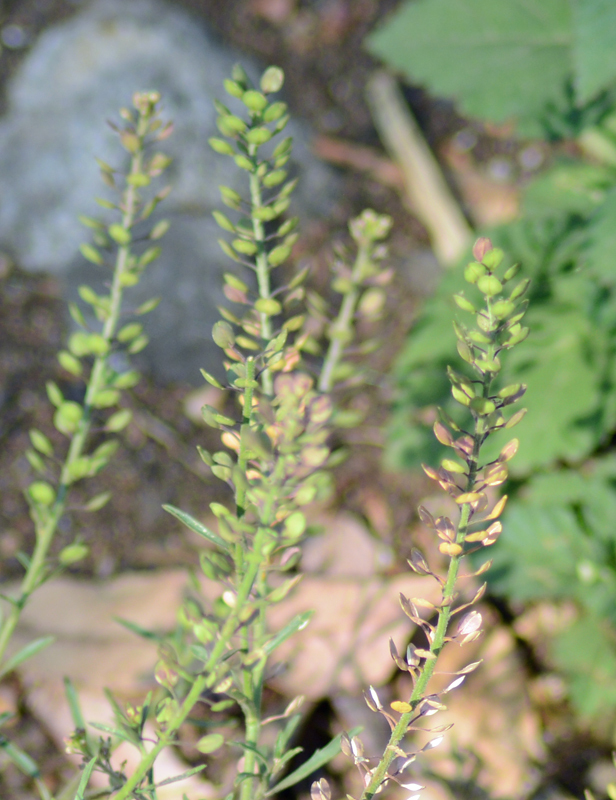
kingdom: Plantae
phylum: Tracheophyta
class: Magnoliopsida
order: Brassicales
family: Brassicaceae
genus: Lepidium
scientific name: Lepidium virginicum
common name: Least pepperwort
